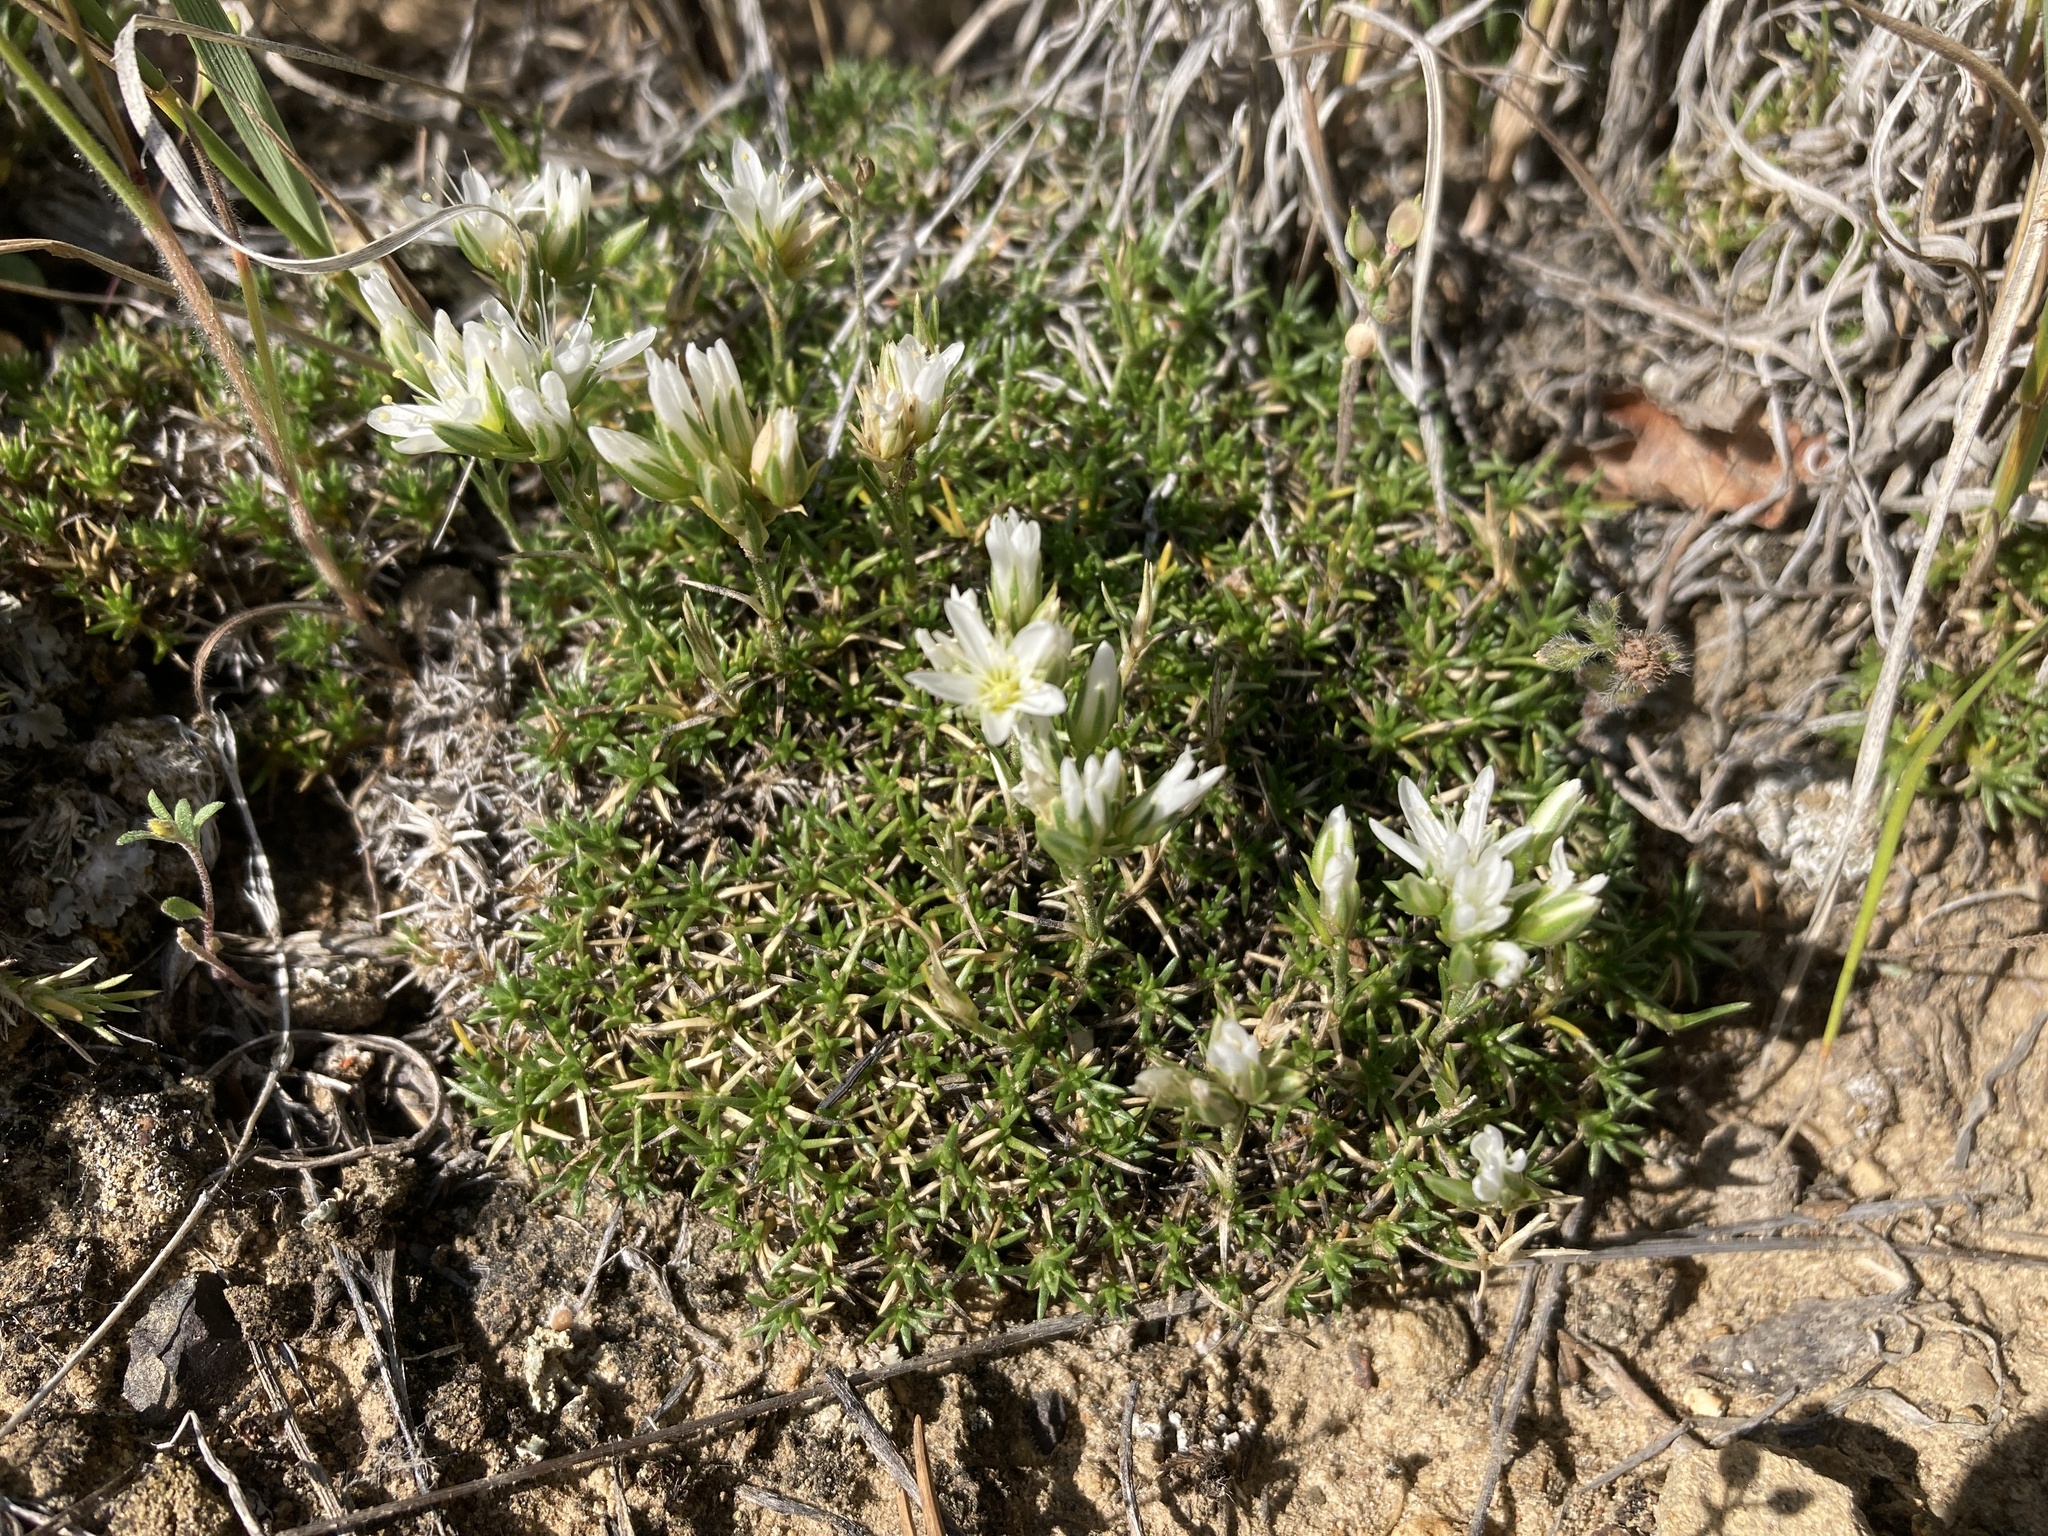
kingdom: Plantae
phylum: Tracheophyta
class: Magnoliopsida
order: Caryophyllales
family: Caryophyllaceae
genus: Eremogone
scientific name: Eremogone hookeri
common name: Hooker's sandwort
